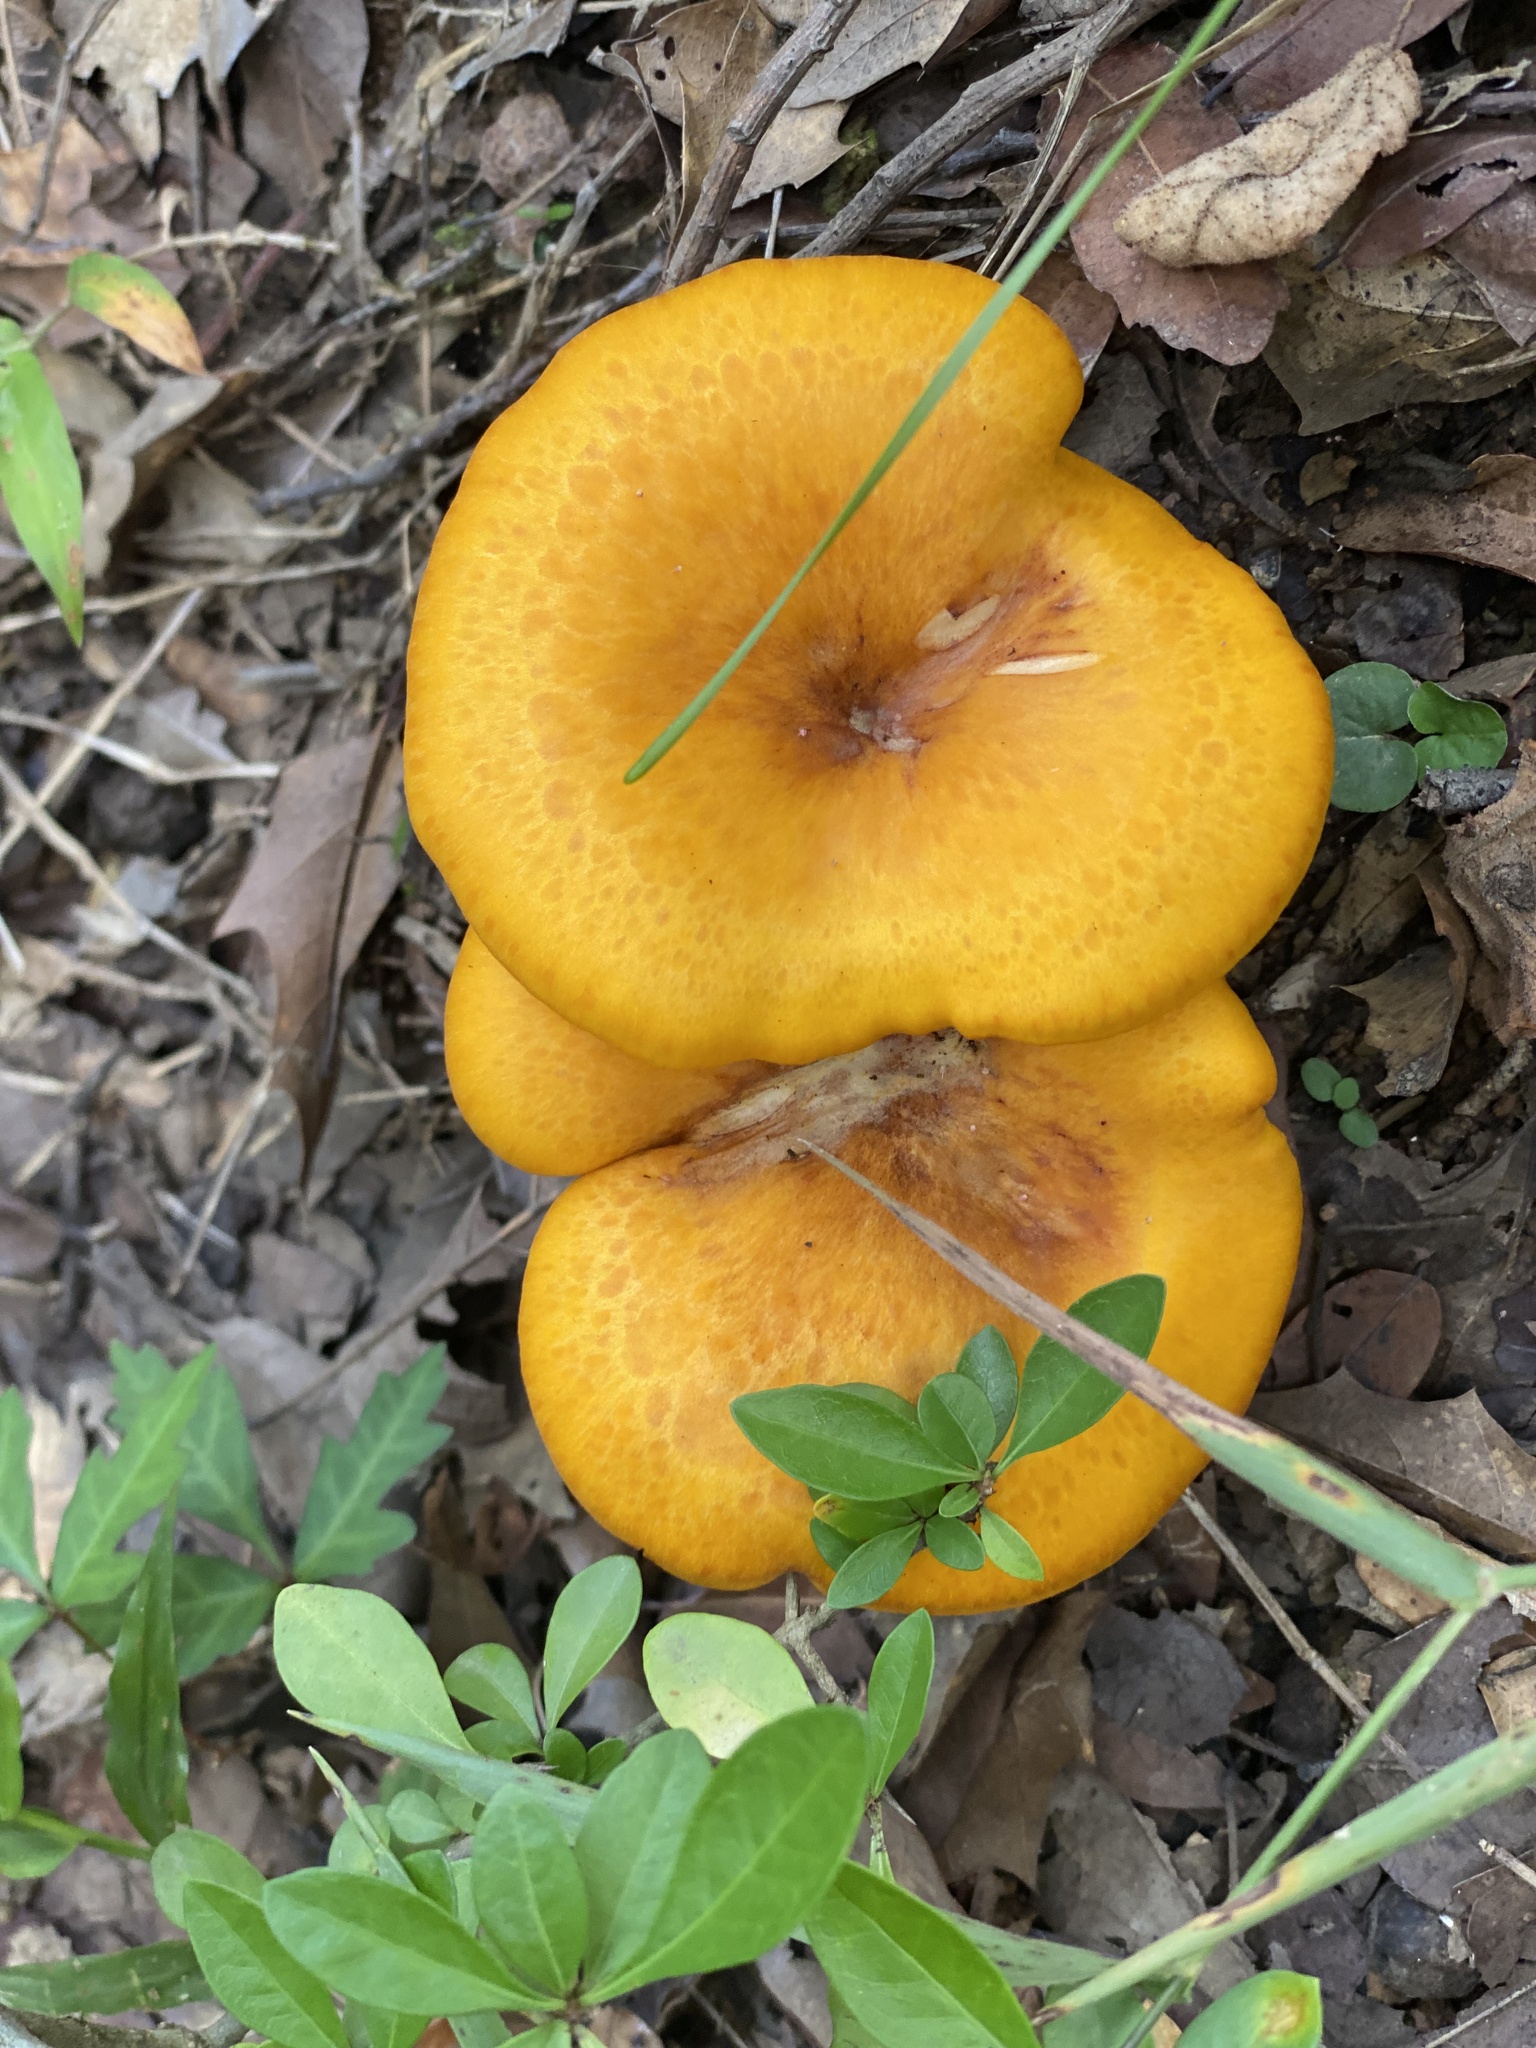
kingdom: Fungi
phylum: Basidiomycota
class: Agaricomycetes
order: Agaricales
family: Omphalotaceae
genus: Omphalotus
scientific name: Omphalotus illudens
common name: Jack o lantern
